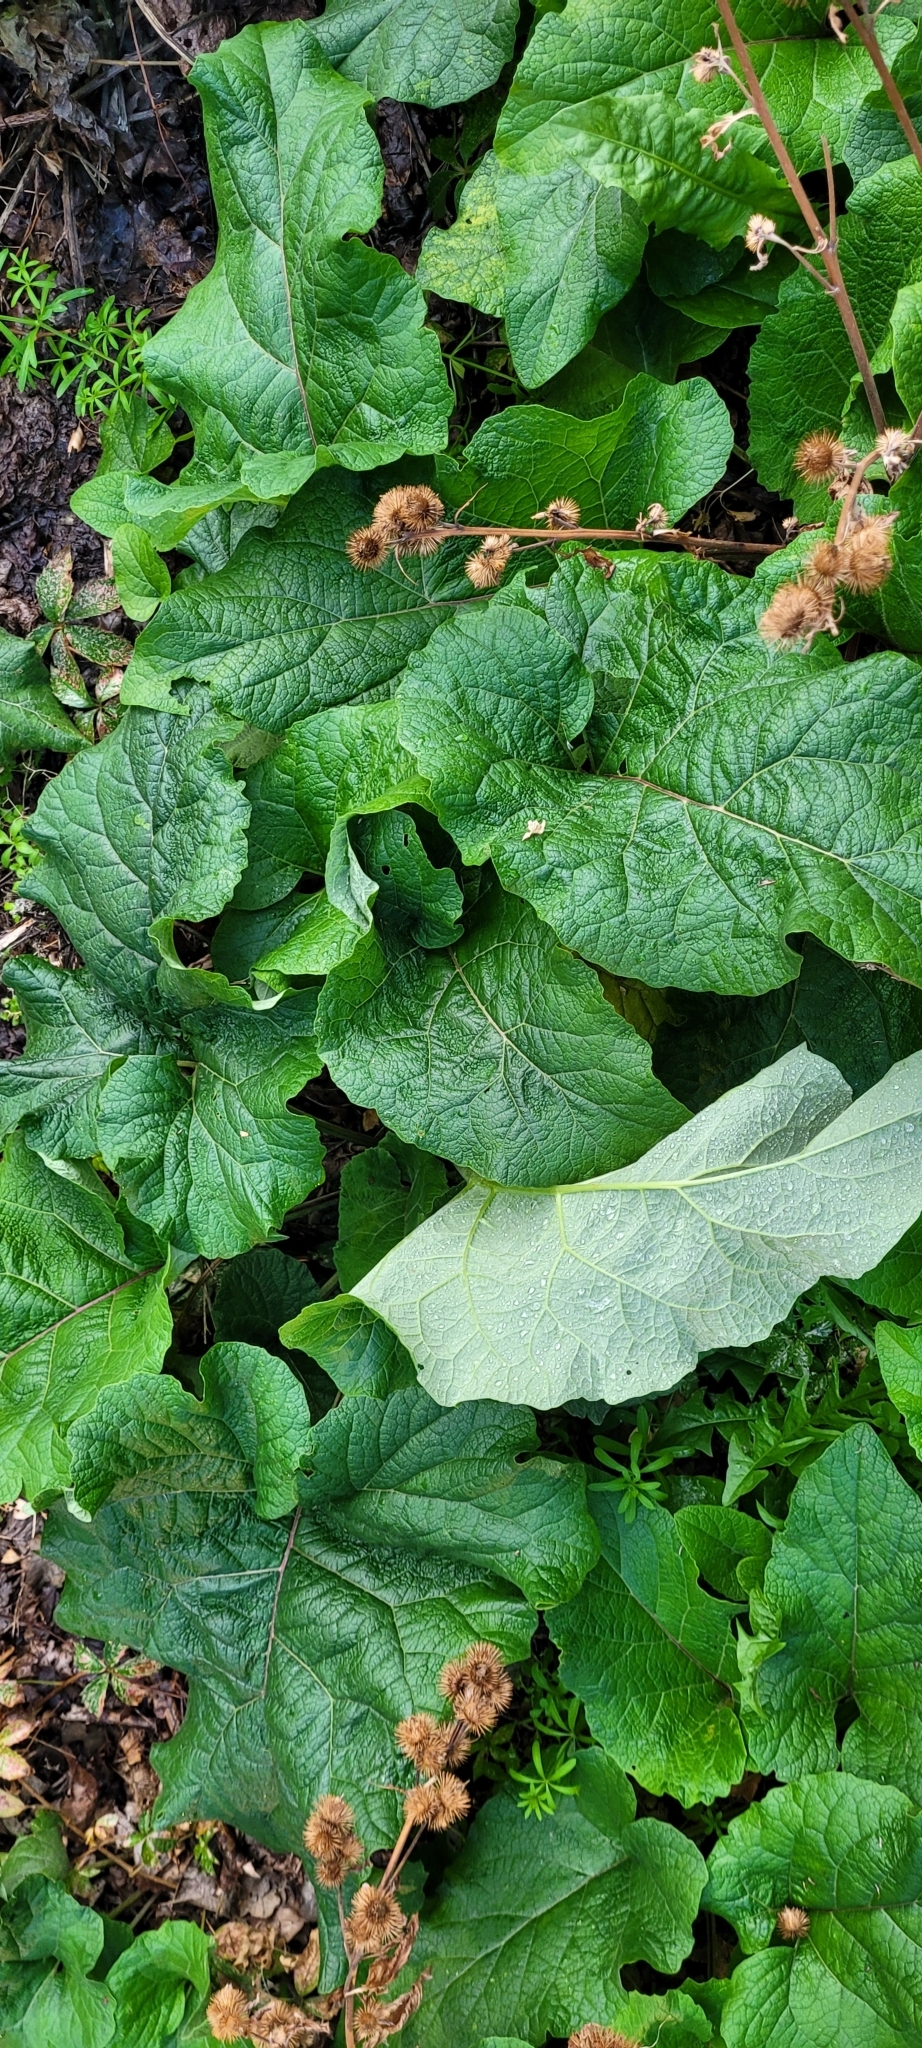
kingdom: Plantae
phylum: Tracheophyta
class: Magnoliopsida
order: Asterales
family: Asteraceae
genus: Arctium
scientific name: Arctium lappa
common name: Greater burdock
